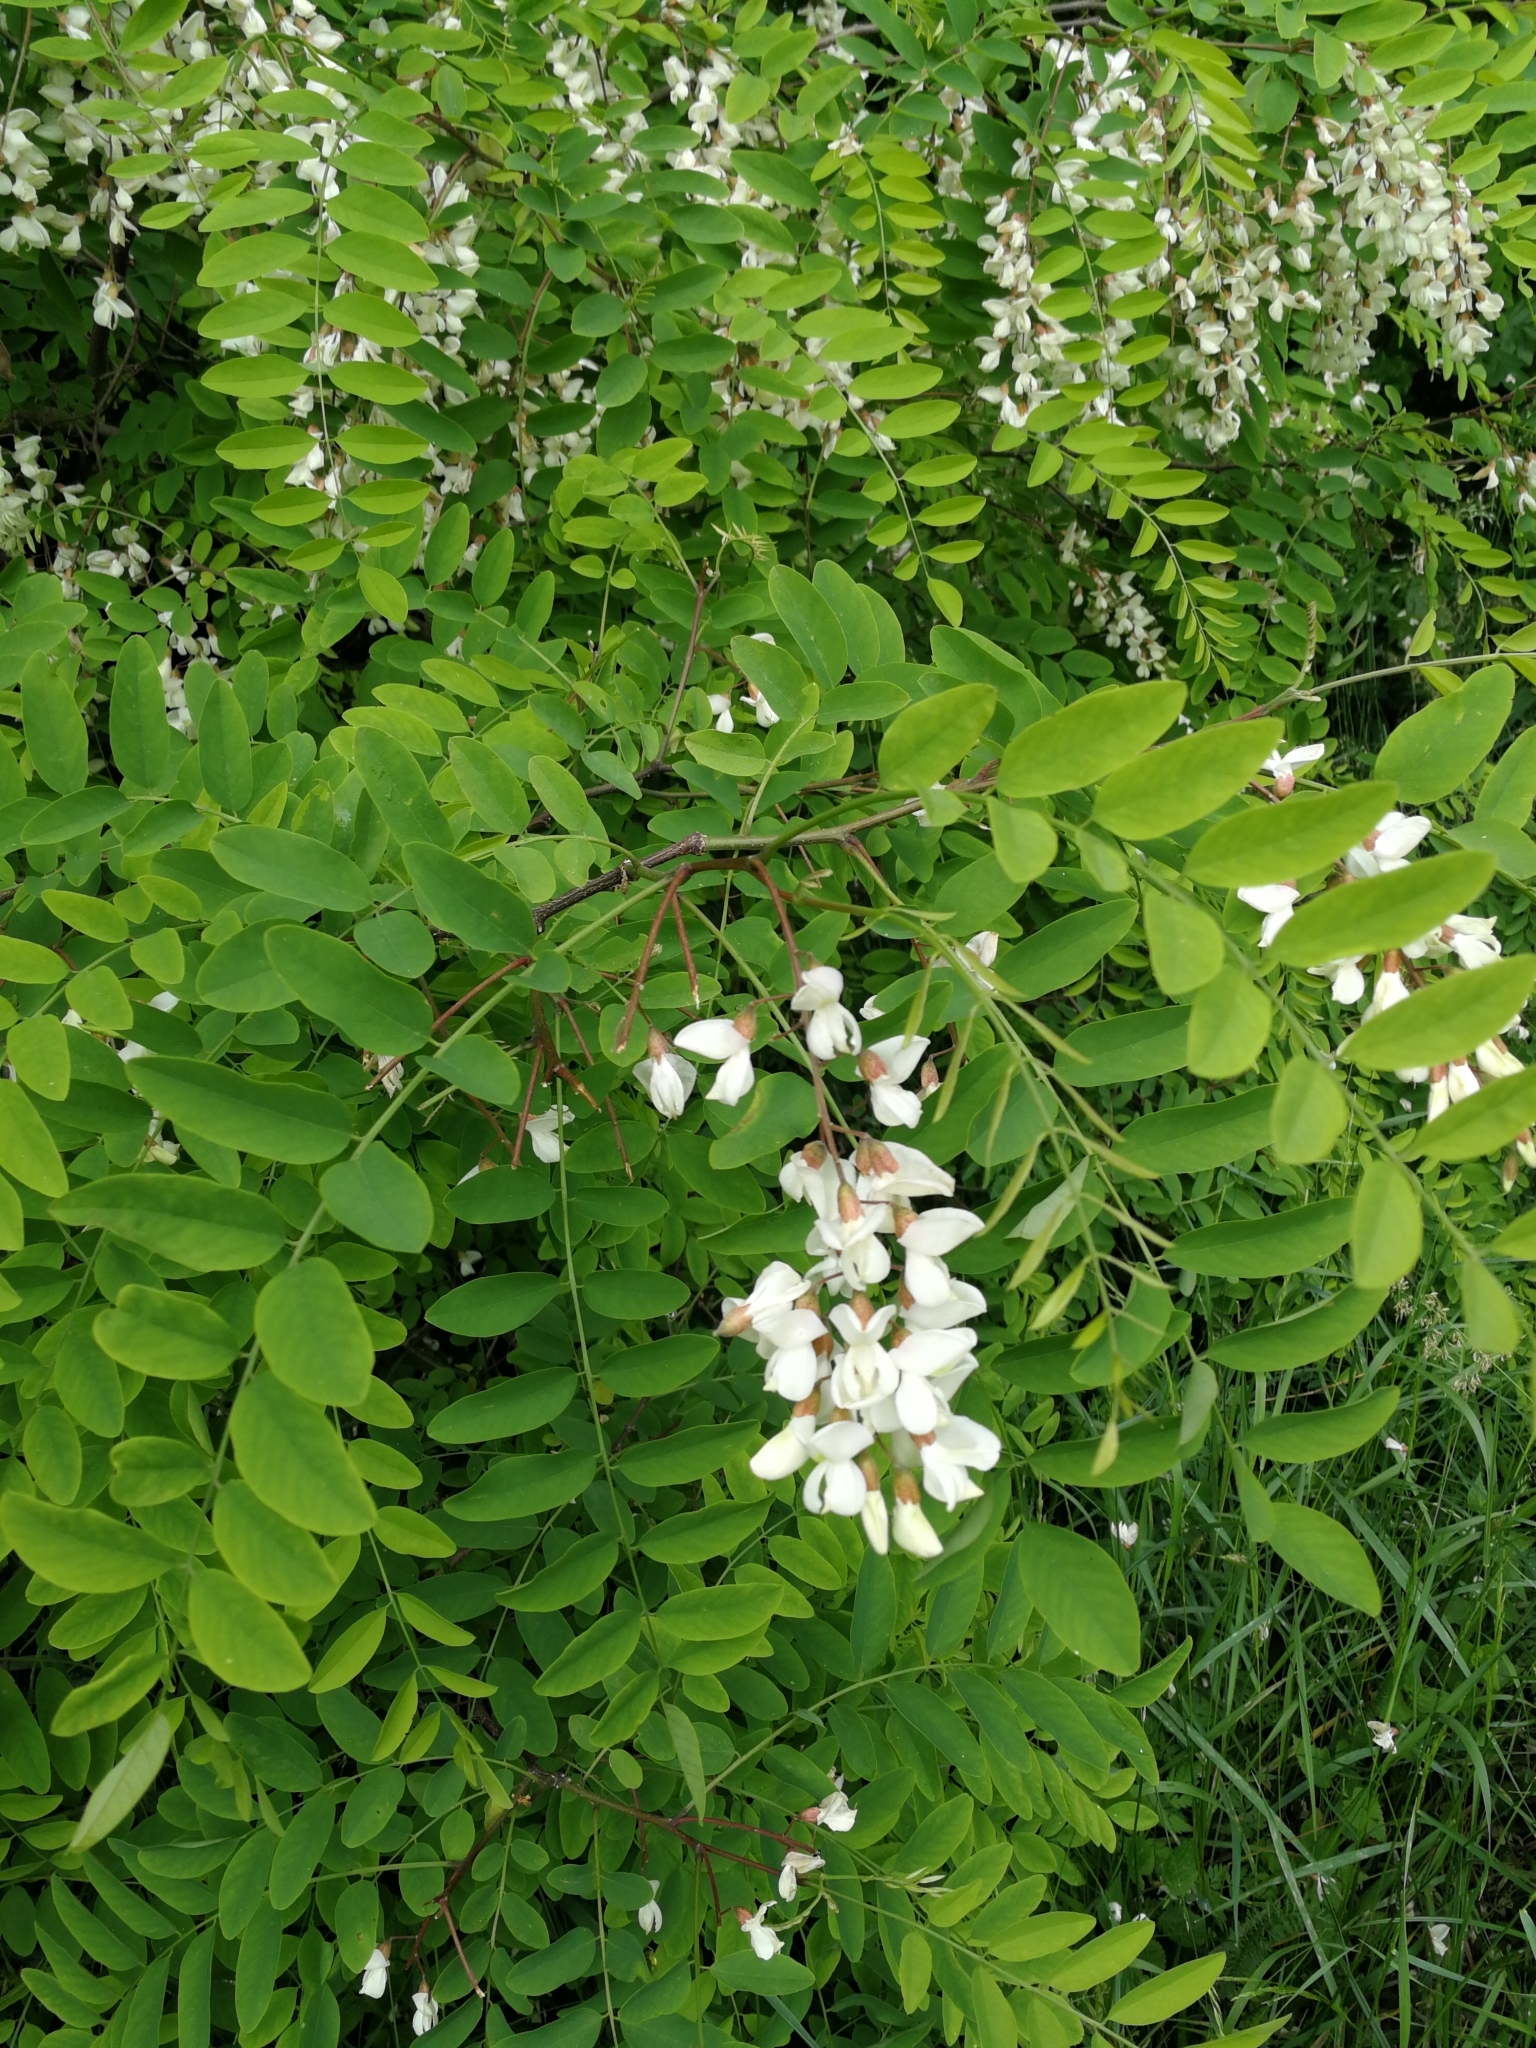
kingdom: Plantae
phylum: Tracheophyta
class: Magnoliopsida
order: Fabales
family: Fabaceae
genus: Robinia
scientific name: Robinia pseudoacacia
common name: Black locust
